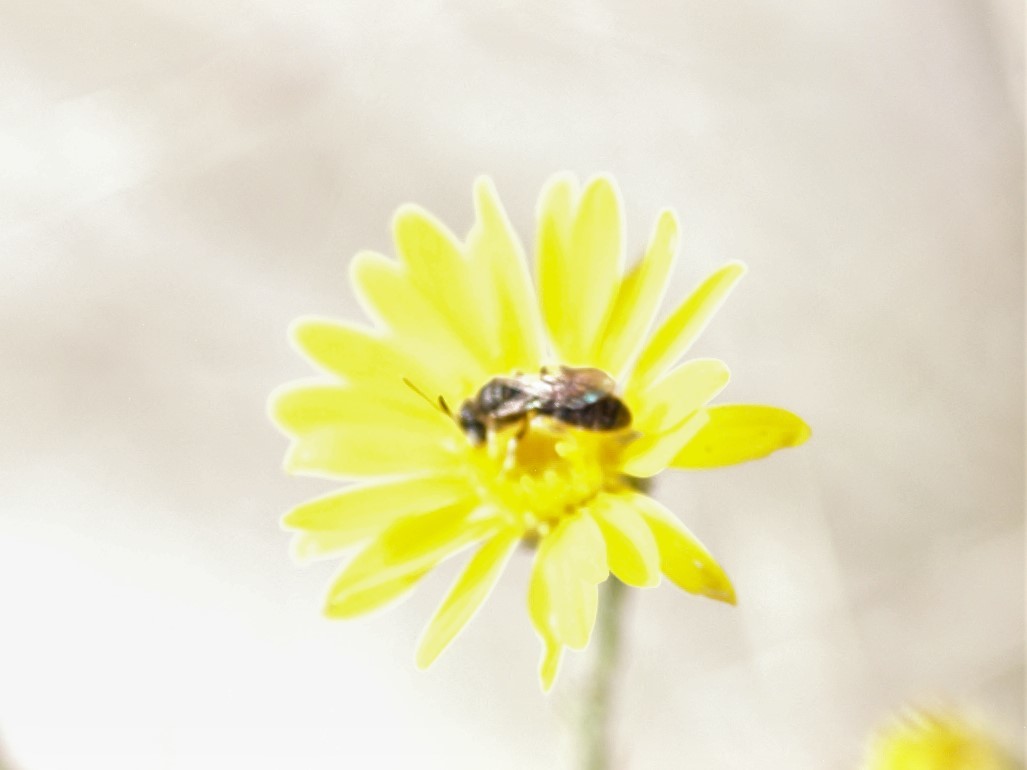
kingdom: Animalia
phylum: Arthropoda
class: Insecta
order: Hymenoptera
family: Andrenidae
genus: Pterosarus
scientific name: Pterosarus
